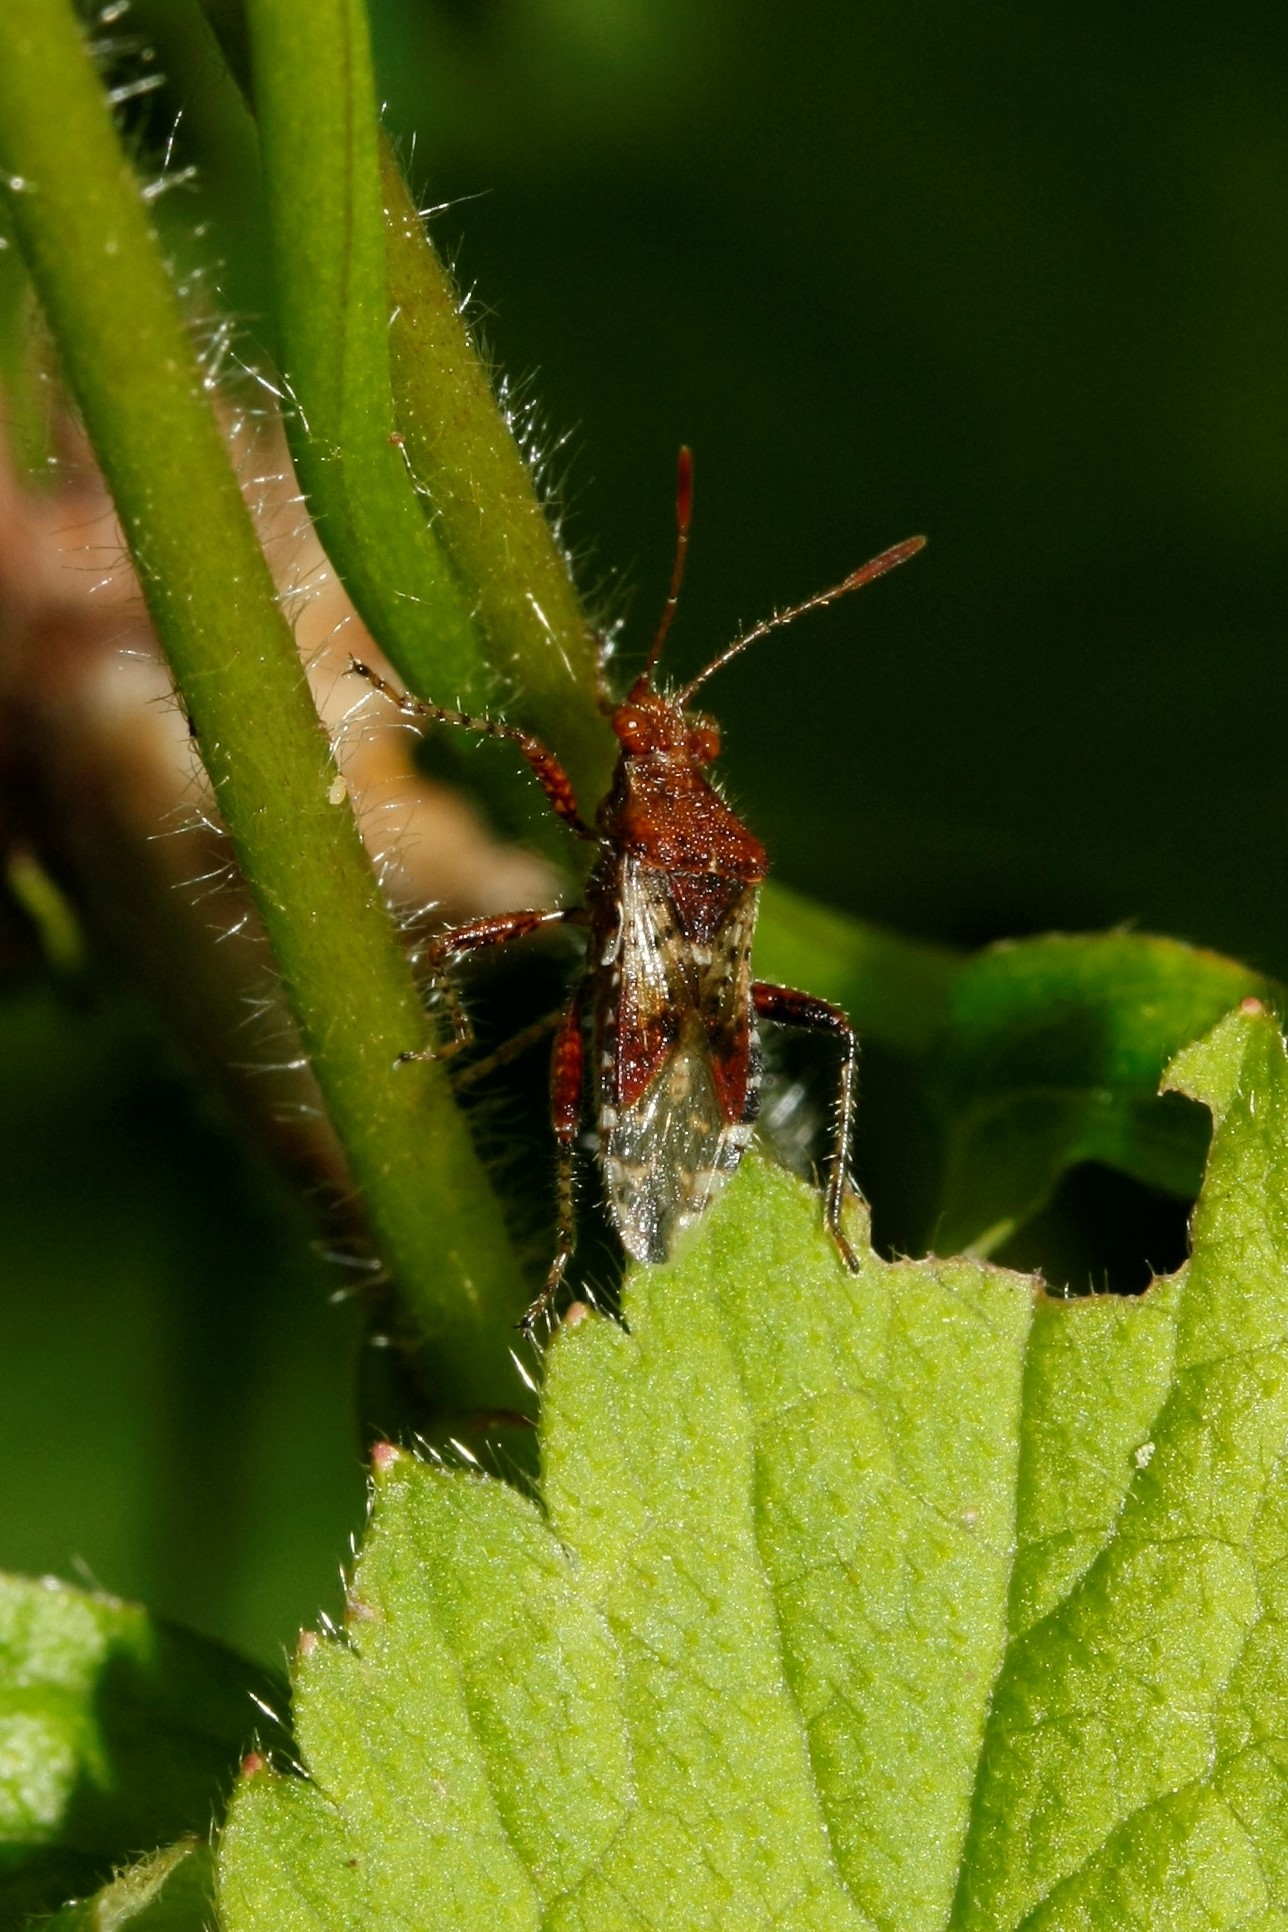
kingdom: Animalia
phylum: Arthropoda
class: Insecta
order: Hemiptera
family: Rhopalidae
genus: Rhopalus
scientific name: Rhopalus subrufus
